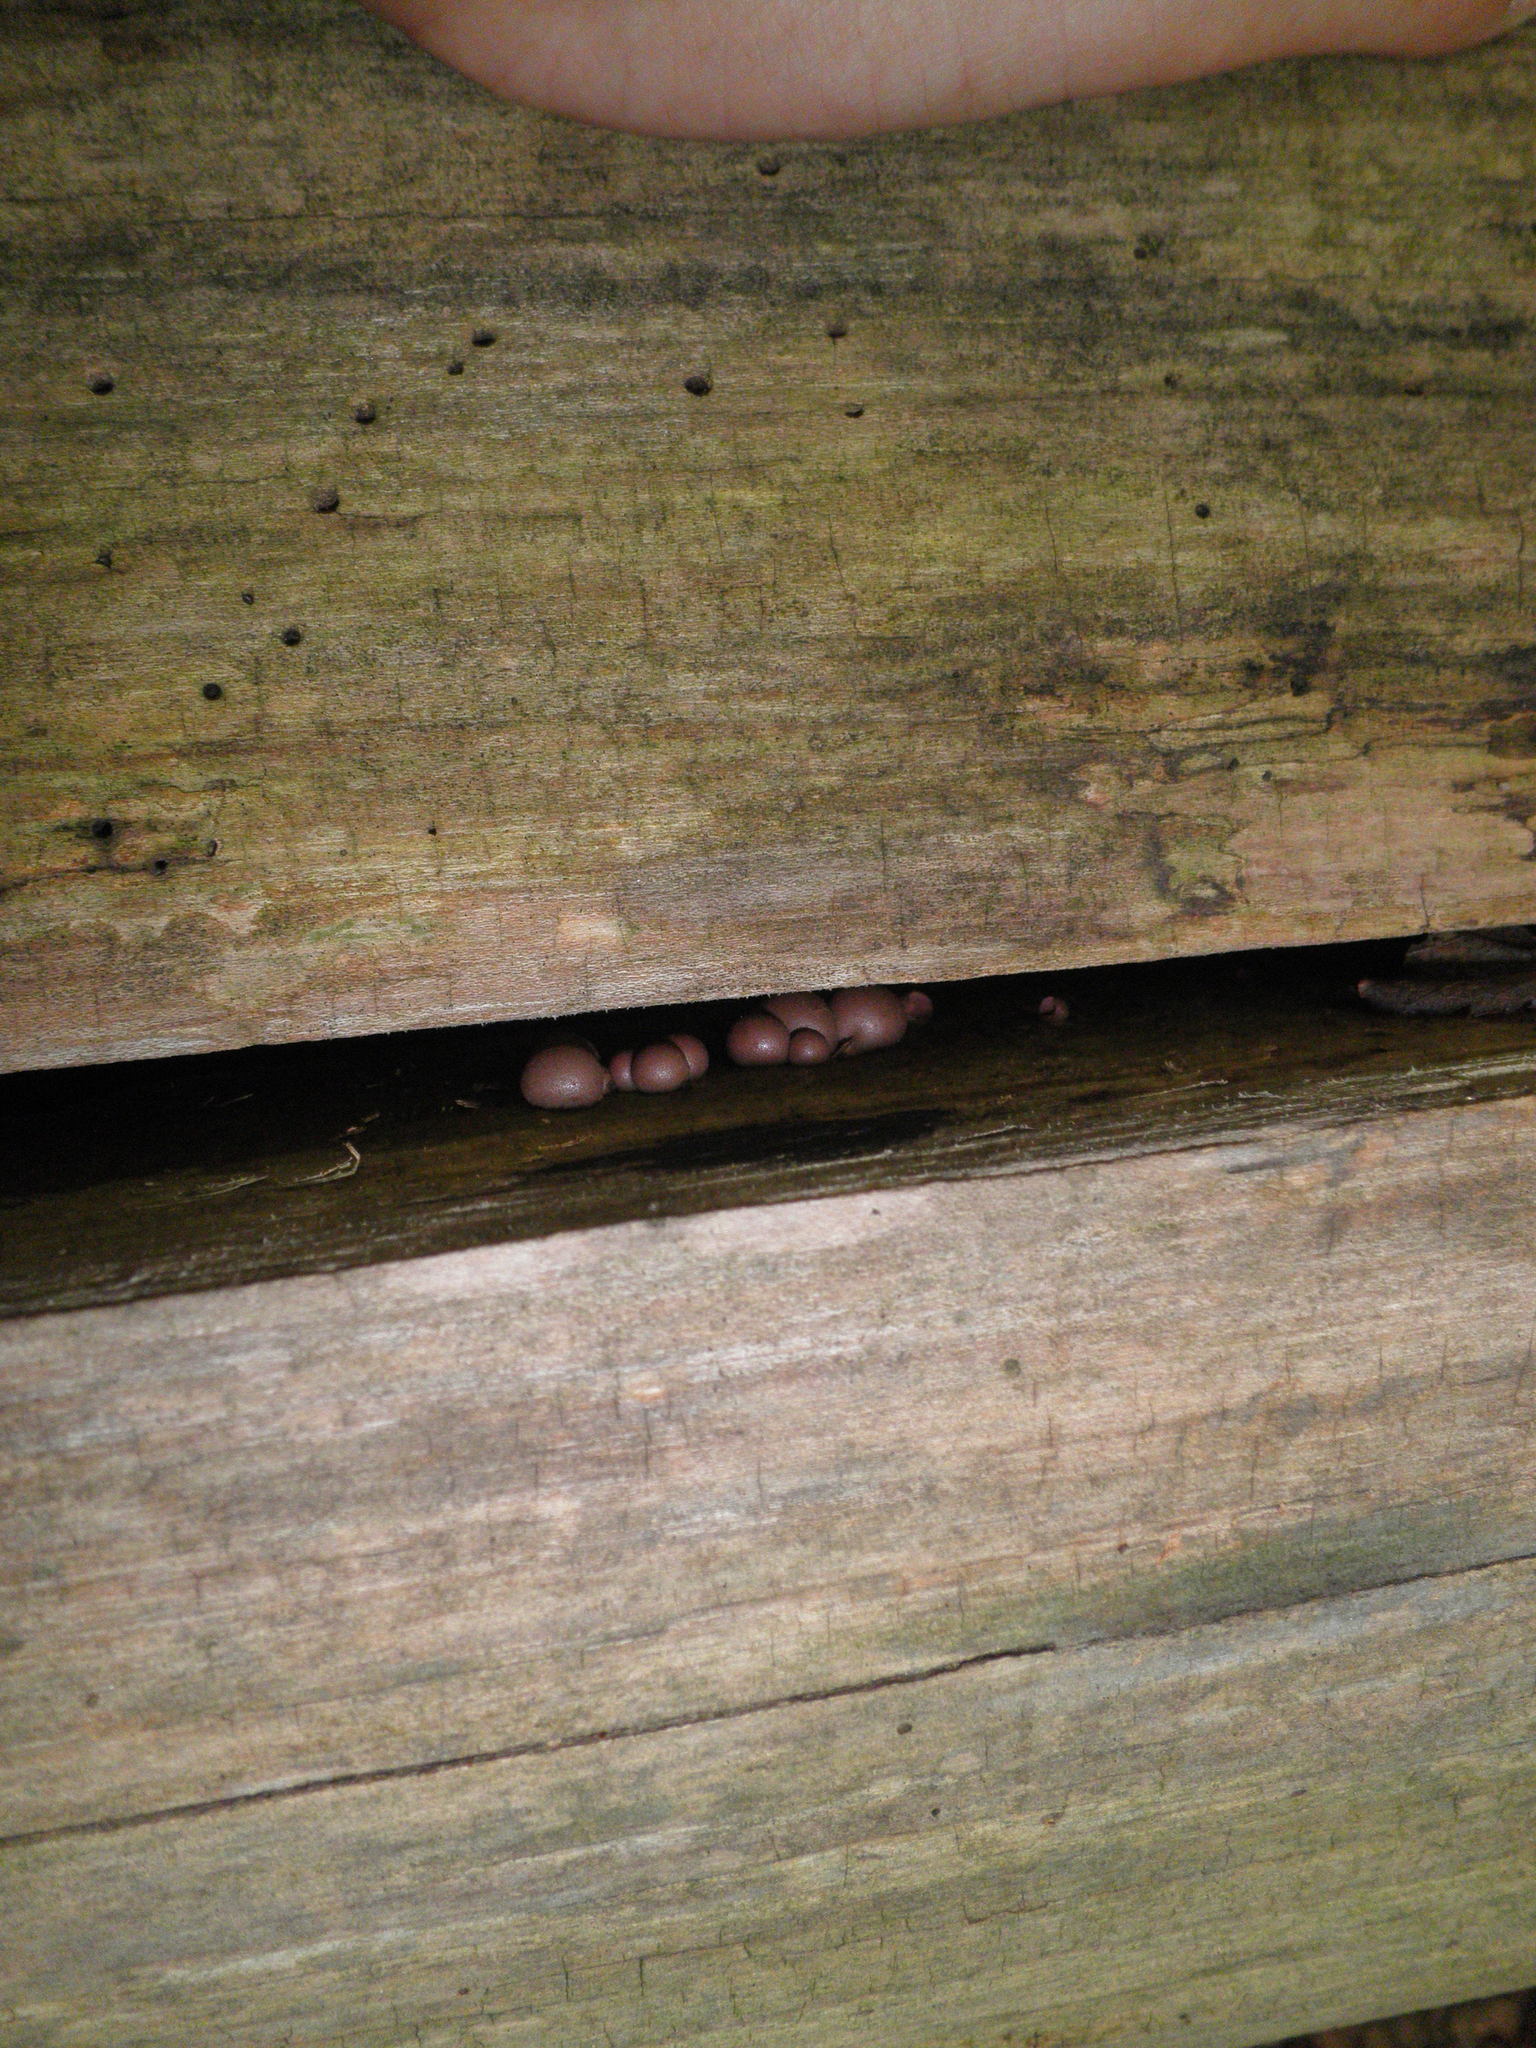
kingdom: Protozoa
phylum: Mycetozoa
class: Myxomycetes
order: Cribrariales
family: Tubiferaceae
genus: Lycogala
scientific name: Lycogala epidendrum
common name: Wolf's milk
